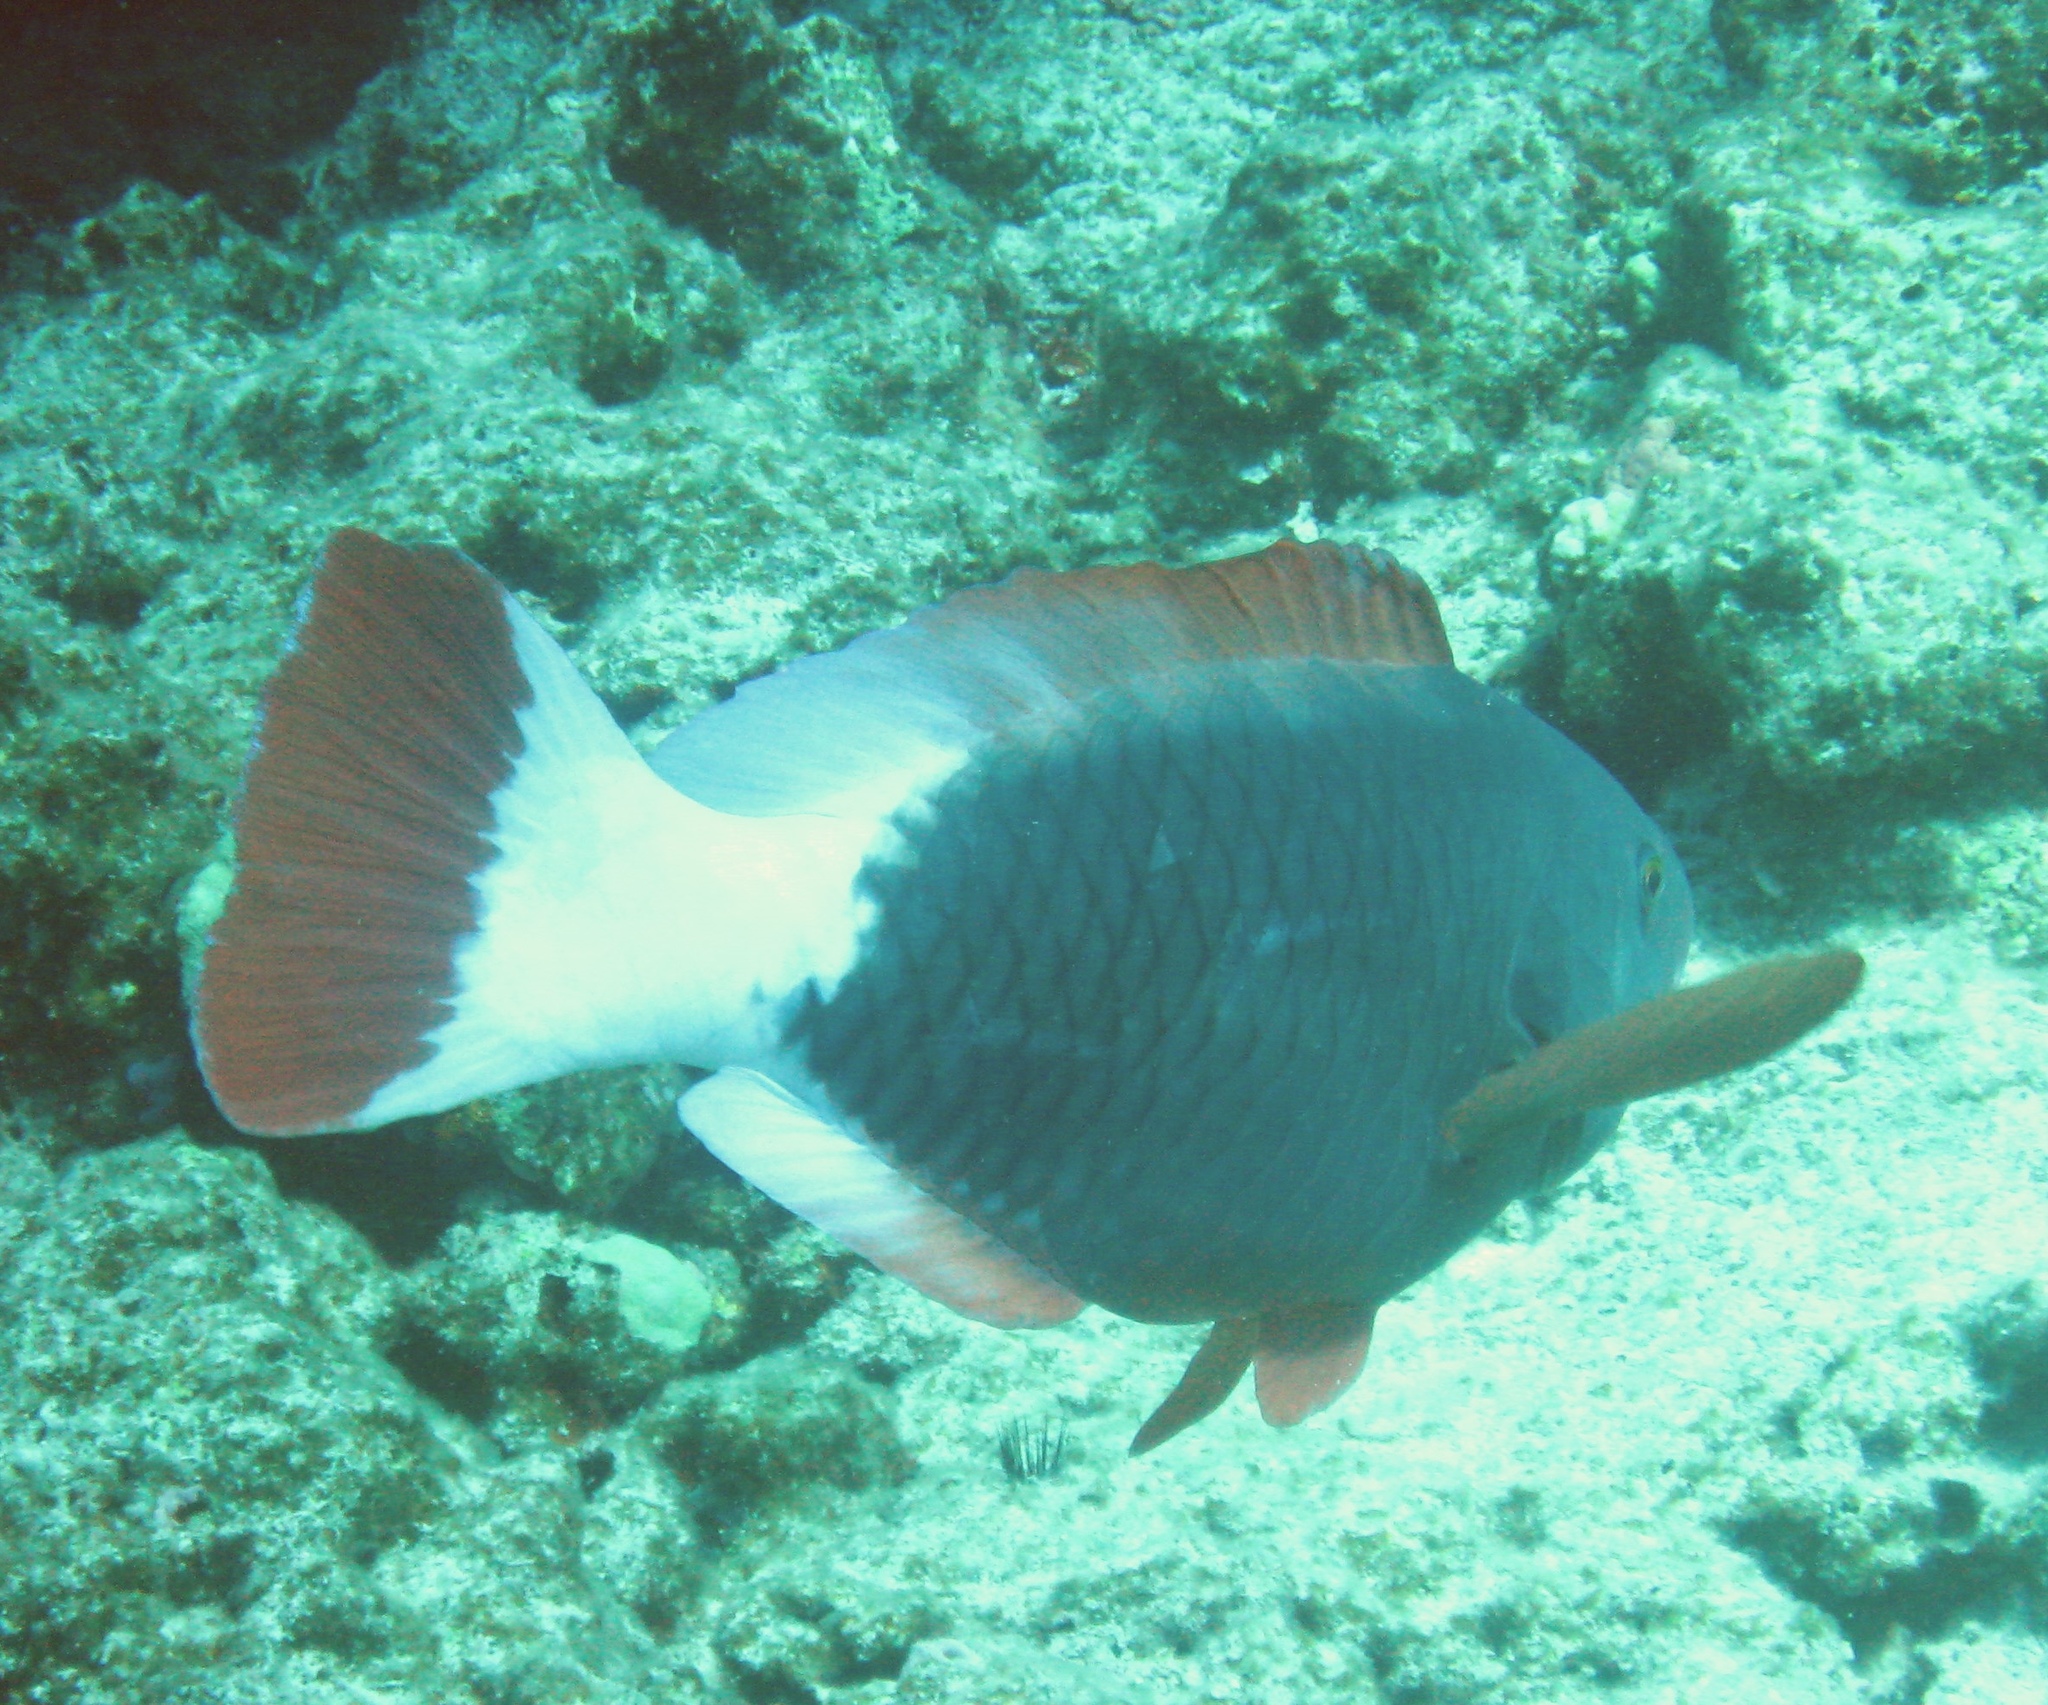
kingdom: Animalia
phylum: Chordata
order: Perciformes
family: Scaridae
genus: Chlorurus
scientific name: Chlorurus perspicillatus
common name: Spectacled parrotfish
